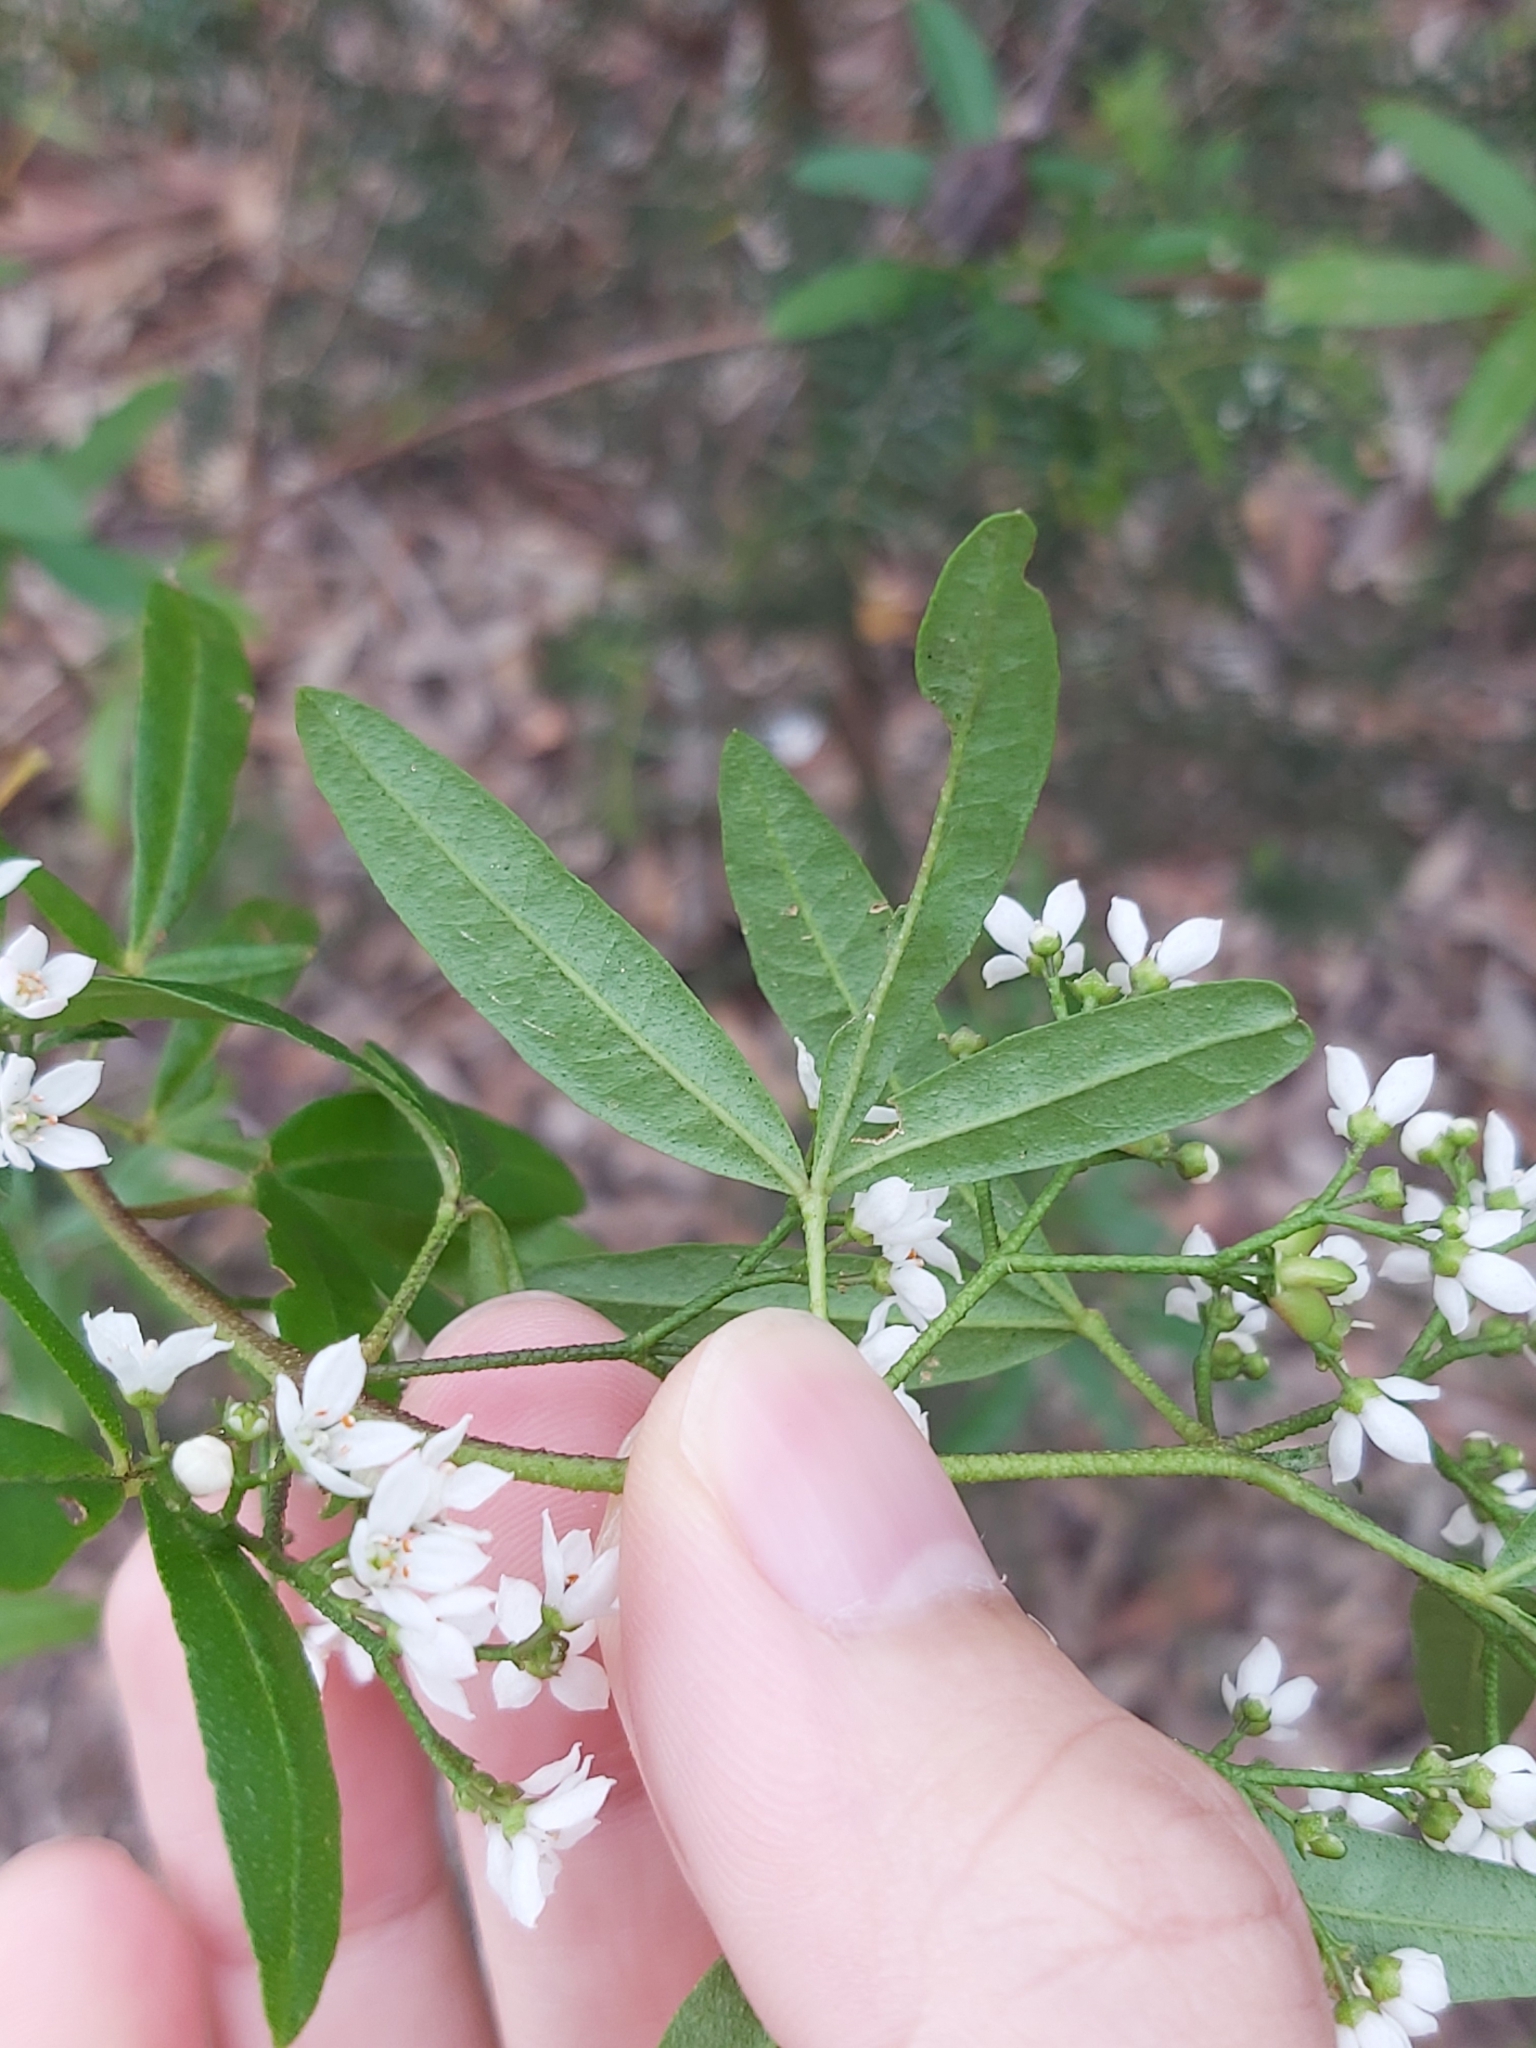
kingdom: Plantae
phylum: Tracheophyta
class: Magnoliopsida
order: Sapindales
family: Rutaceae
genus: Zieria
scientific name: Zieria smithii
